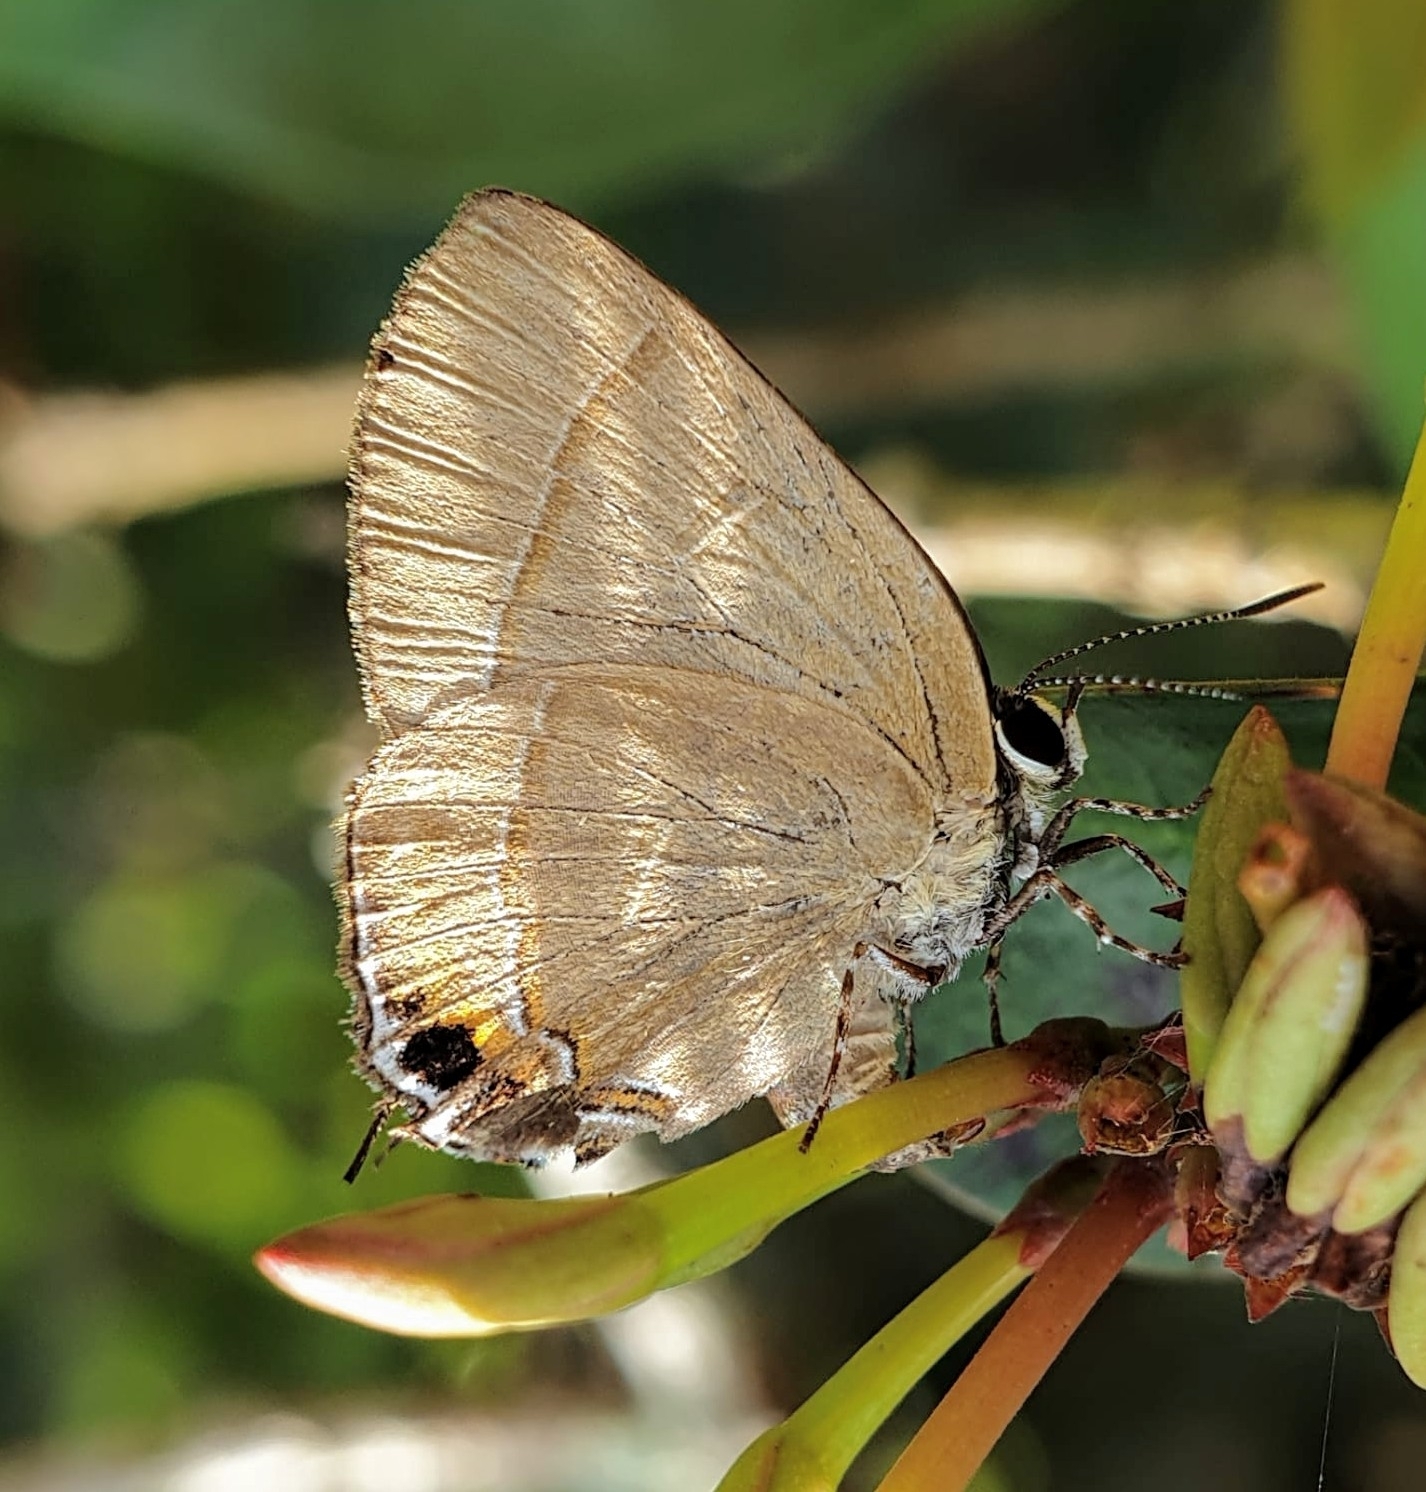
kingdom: Animalia
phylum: Arthropoda
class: Insecta
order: Lepidoptera
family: Lycaenidae
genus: Rapala
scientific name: Rapala dieneces
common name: Scarlet flash
